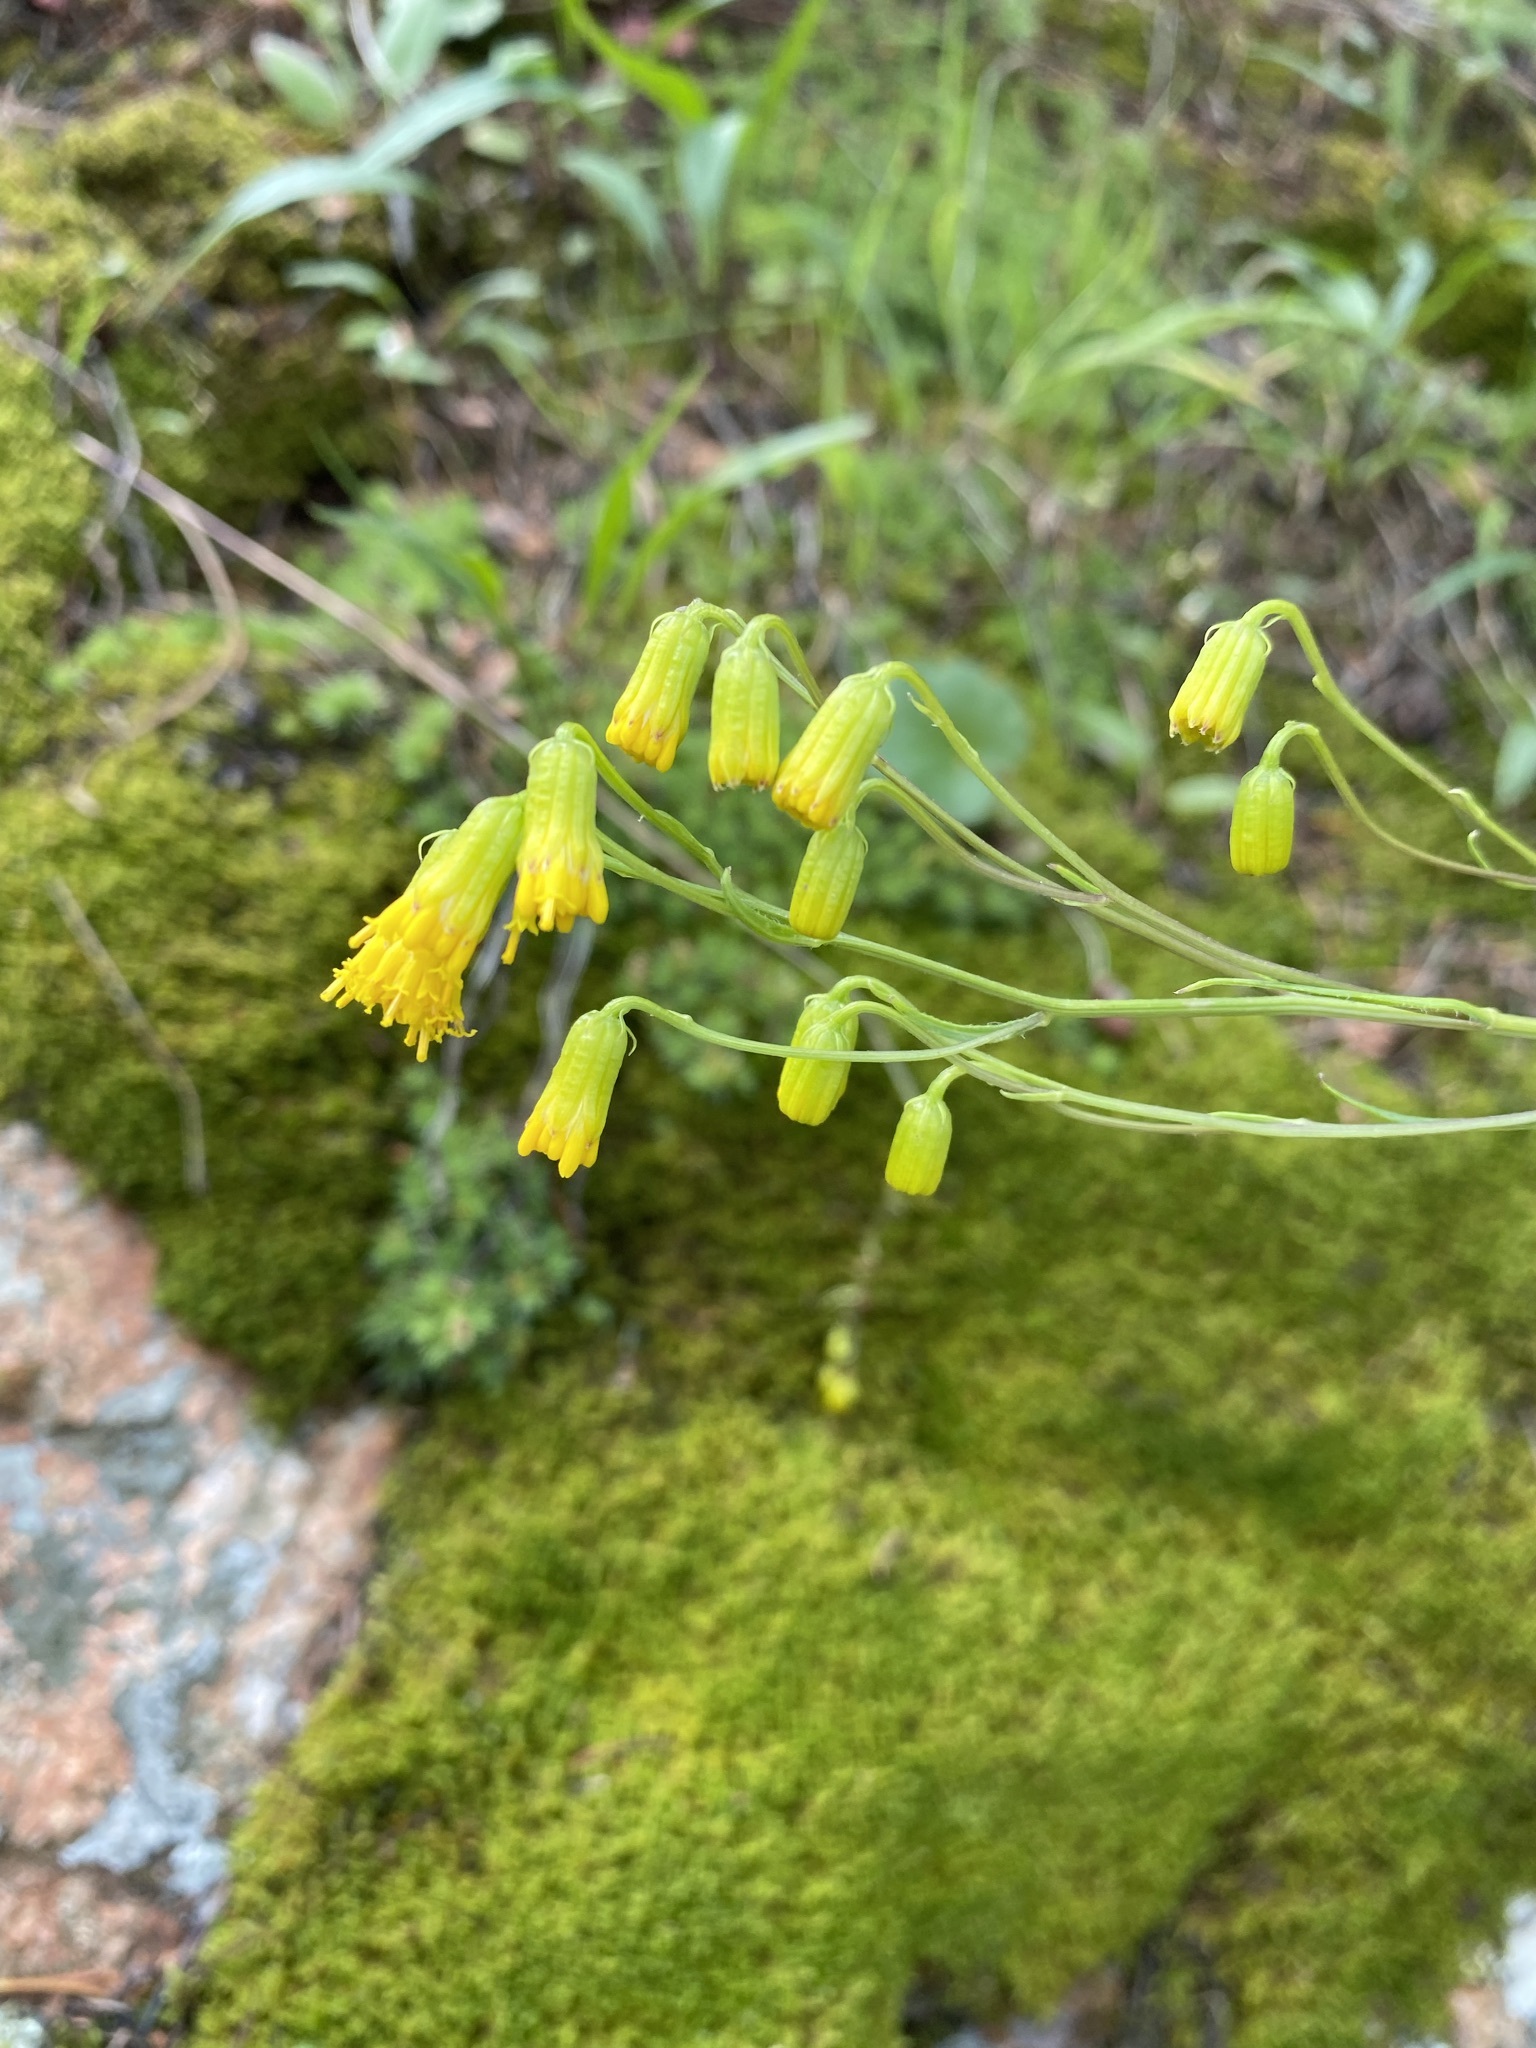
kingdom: Plantae
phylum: Tracheophyta
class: Magnoliopsida
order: Asterales
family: Asteraceae
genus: Senecio
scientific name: Senecio pudicus
